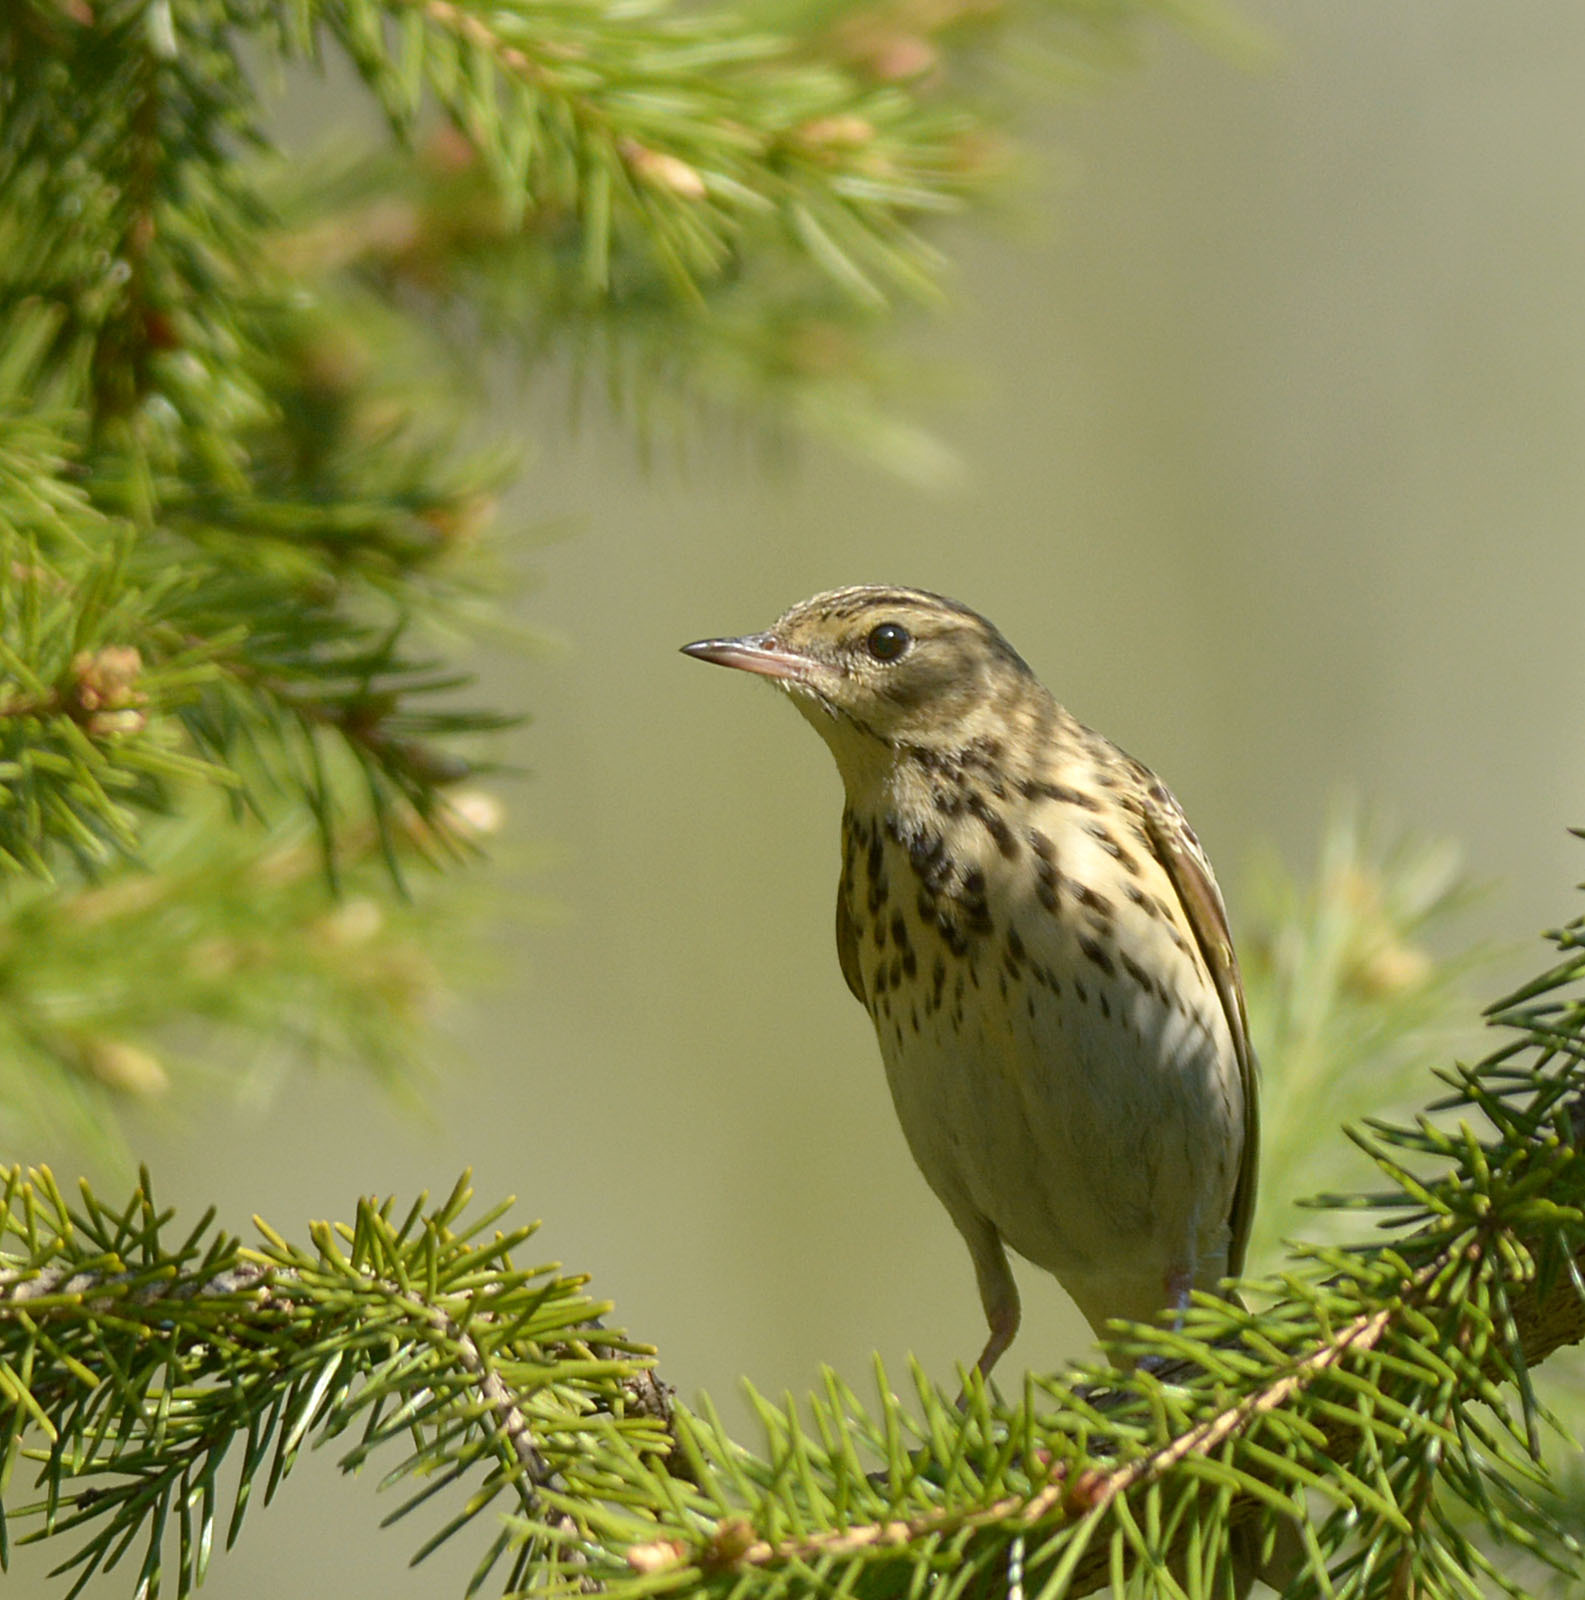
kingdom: Animalia
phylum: Chordata
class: Aves
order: Passeriformes
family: Motacillidae
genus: Anthus
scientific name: Anthus trivialis
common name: Tree pipit
